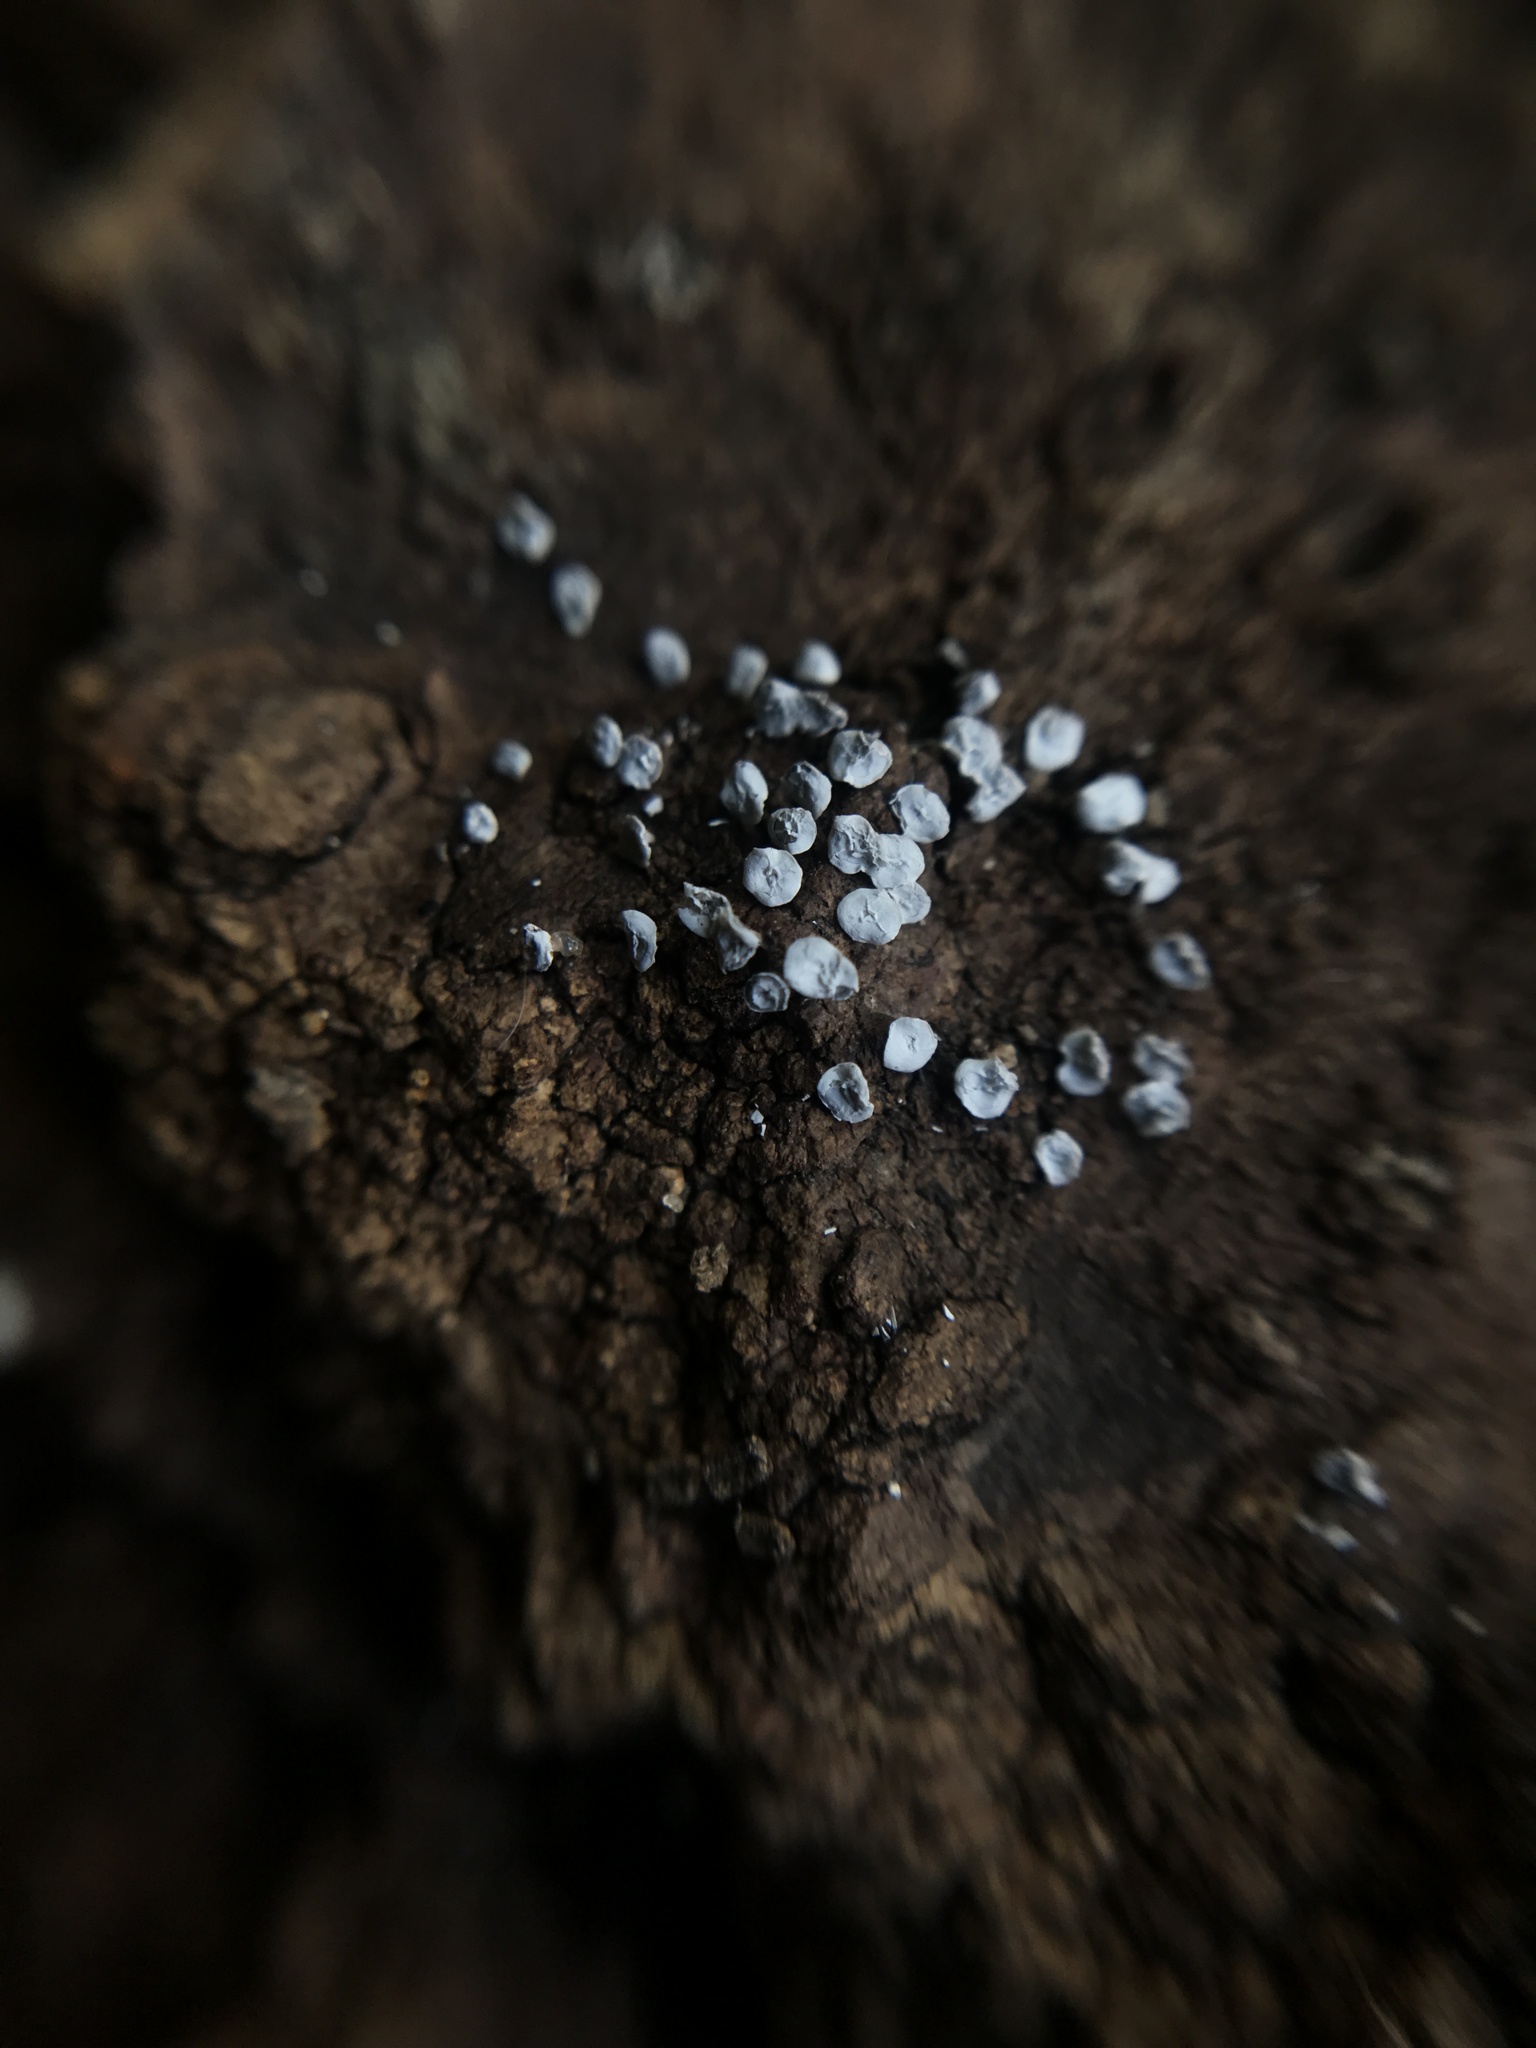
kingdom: Protozoa
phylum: Mycetozoa
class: Myxomycetes
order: Physarales
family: Didymiaceae
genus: Diderma
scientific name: Diderma hemisphaericum
